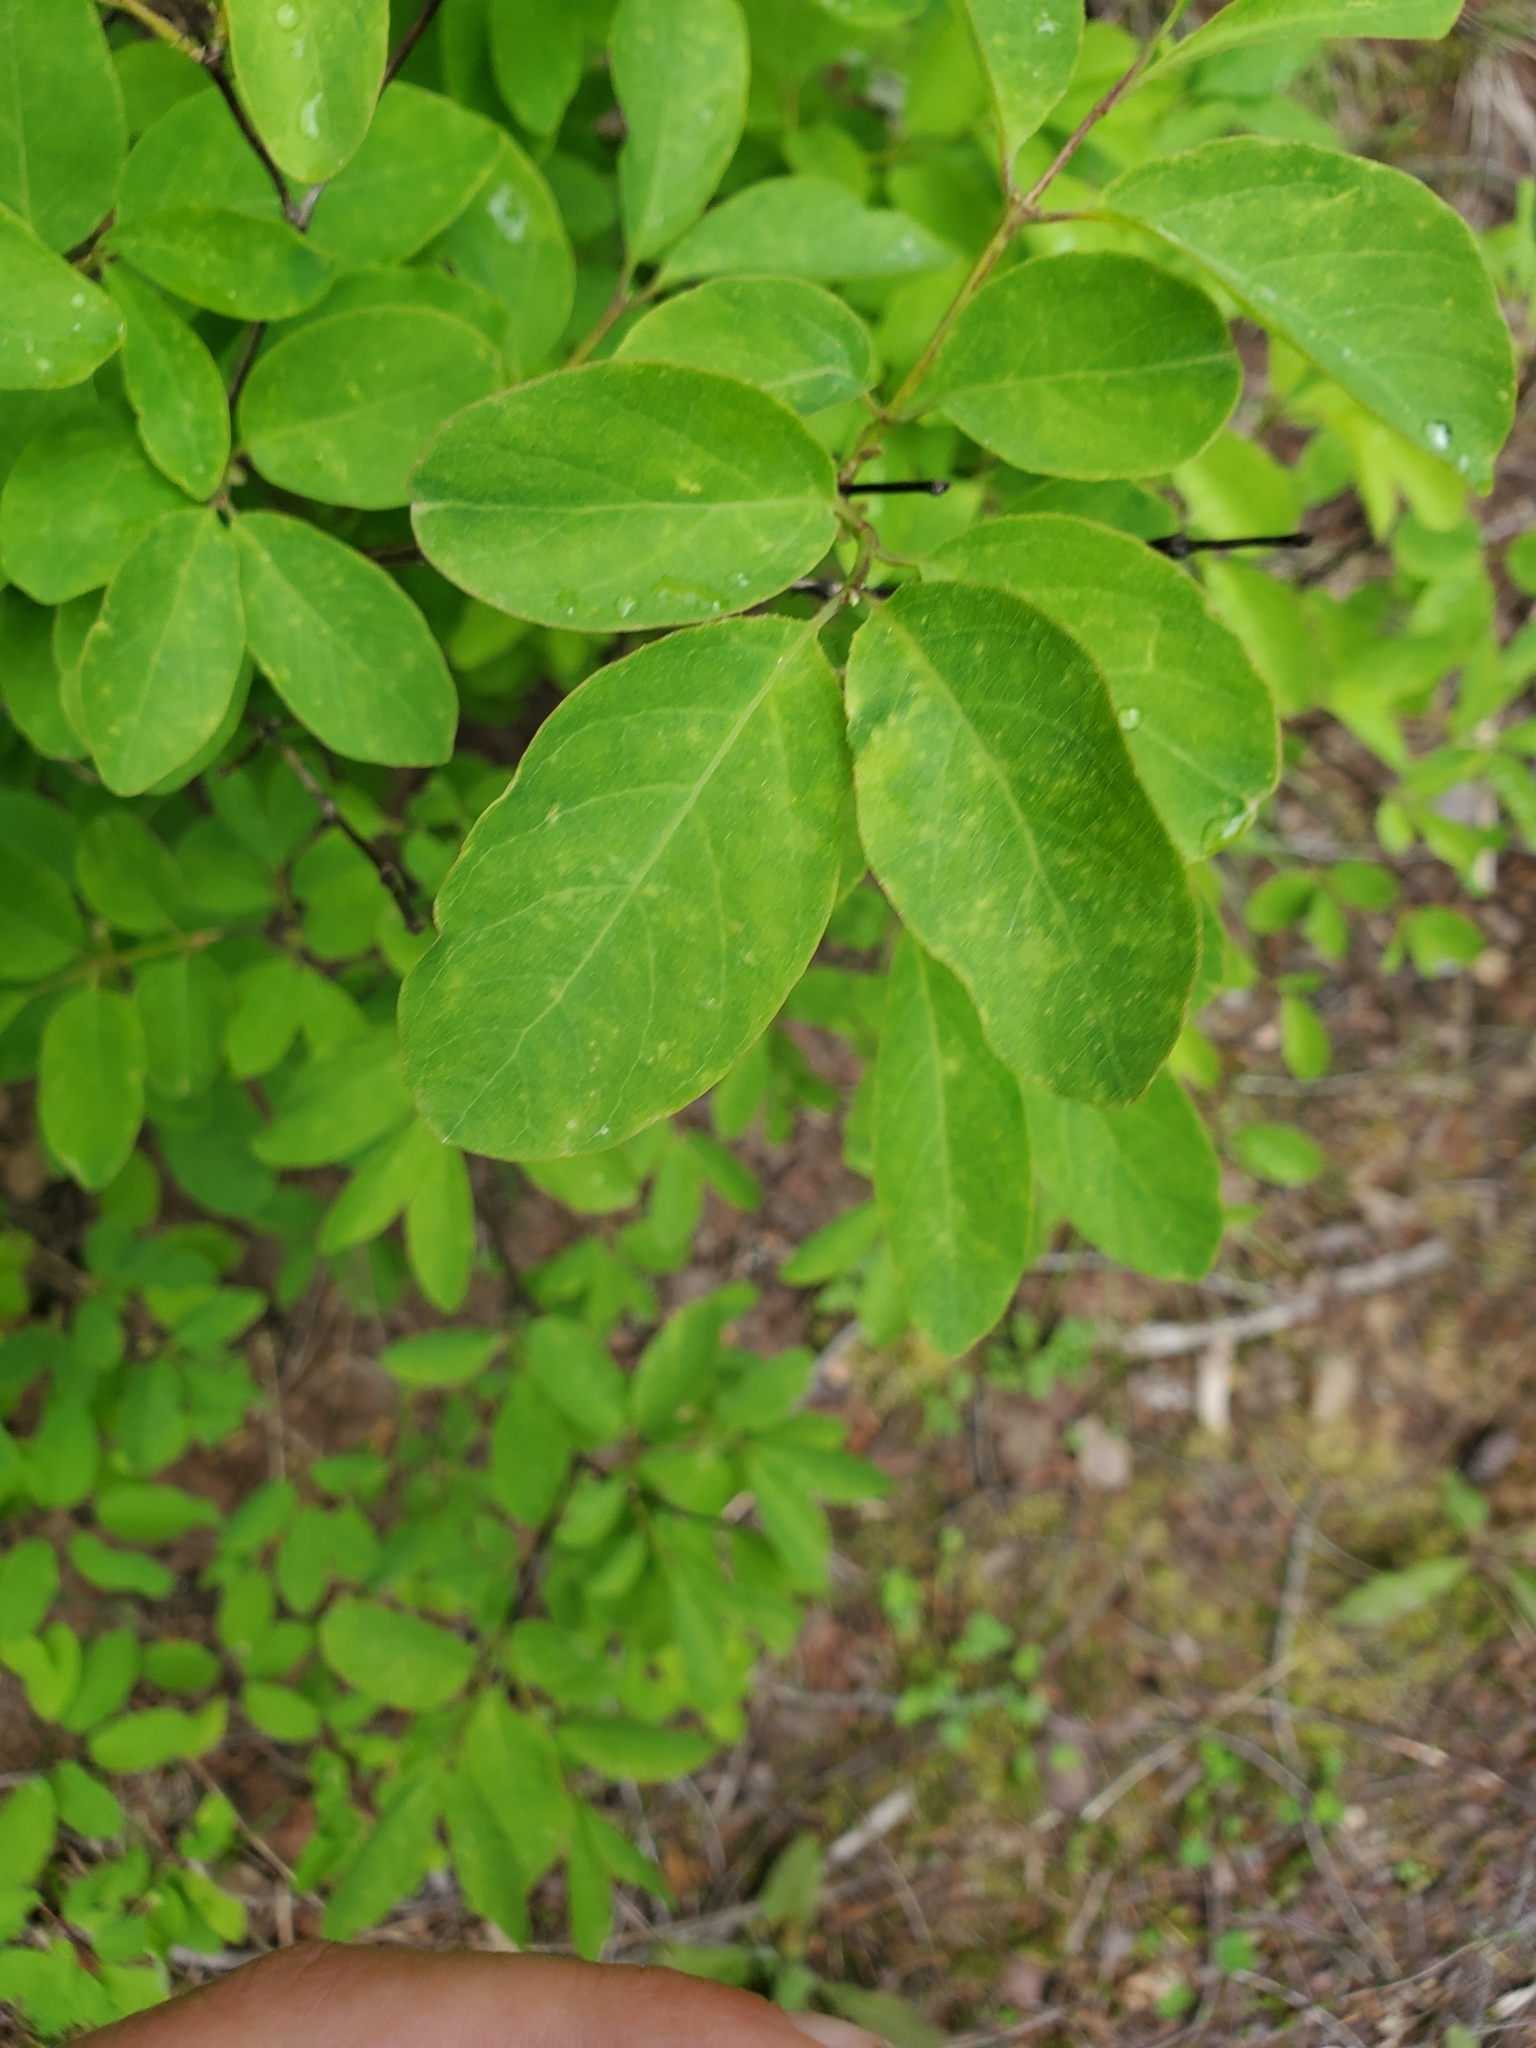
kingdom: Plantae
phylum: Tracheophyta
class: Magnoliopsida
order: Dipsacales
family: Caprifoliaceae
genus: Lonicera
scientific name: Lonicera utahensis
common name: Utah honeysuckle
